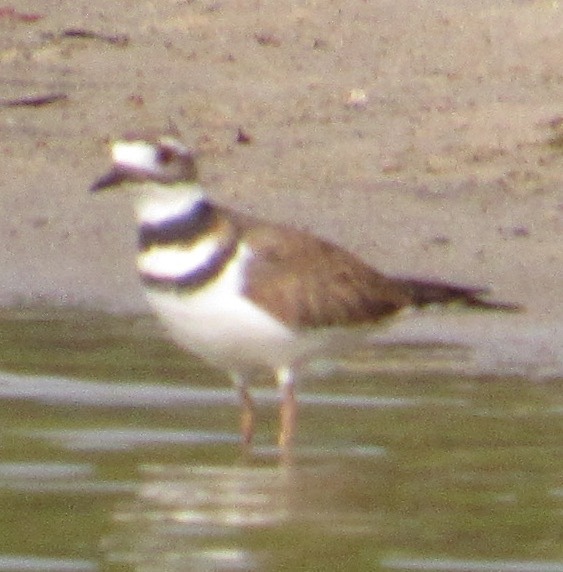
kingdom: Animalia
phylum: Chordata
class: Aves
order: Charadriiformes
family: Charadriidae
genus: Charadrius
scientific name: Charadrius vociferus
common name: Killdeer
